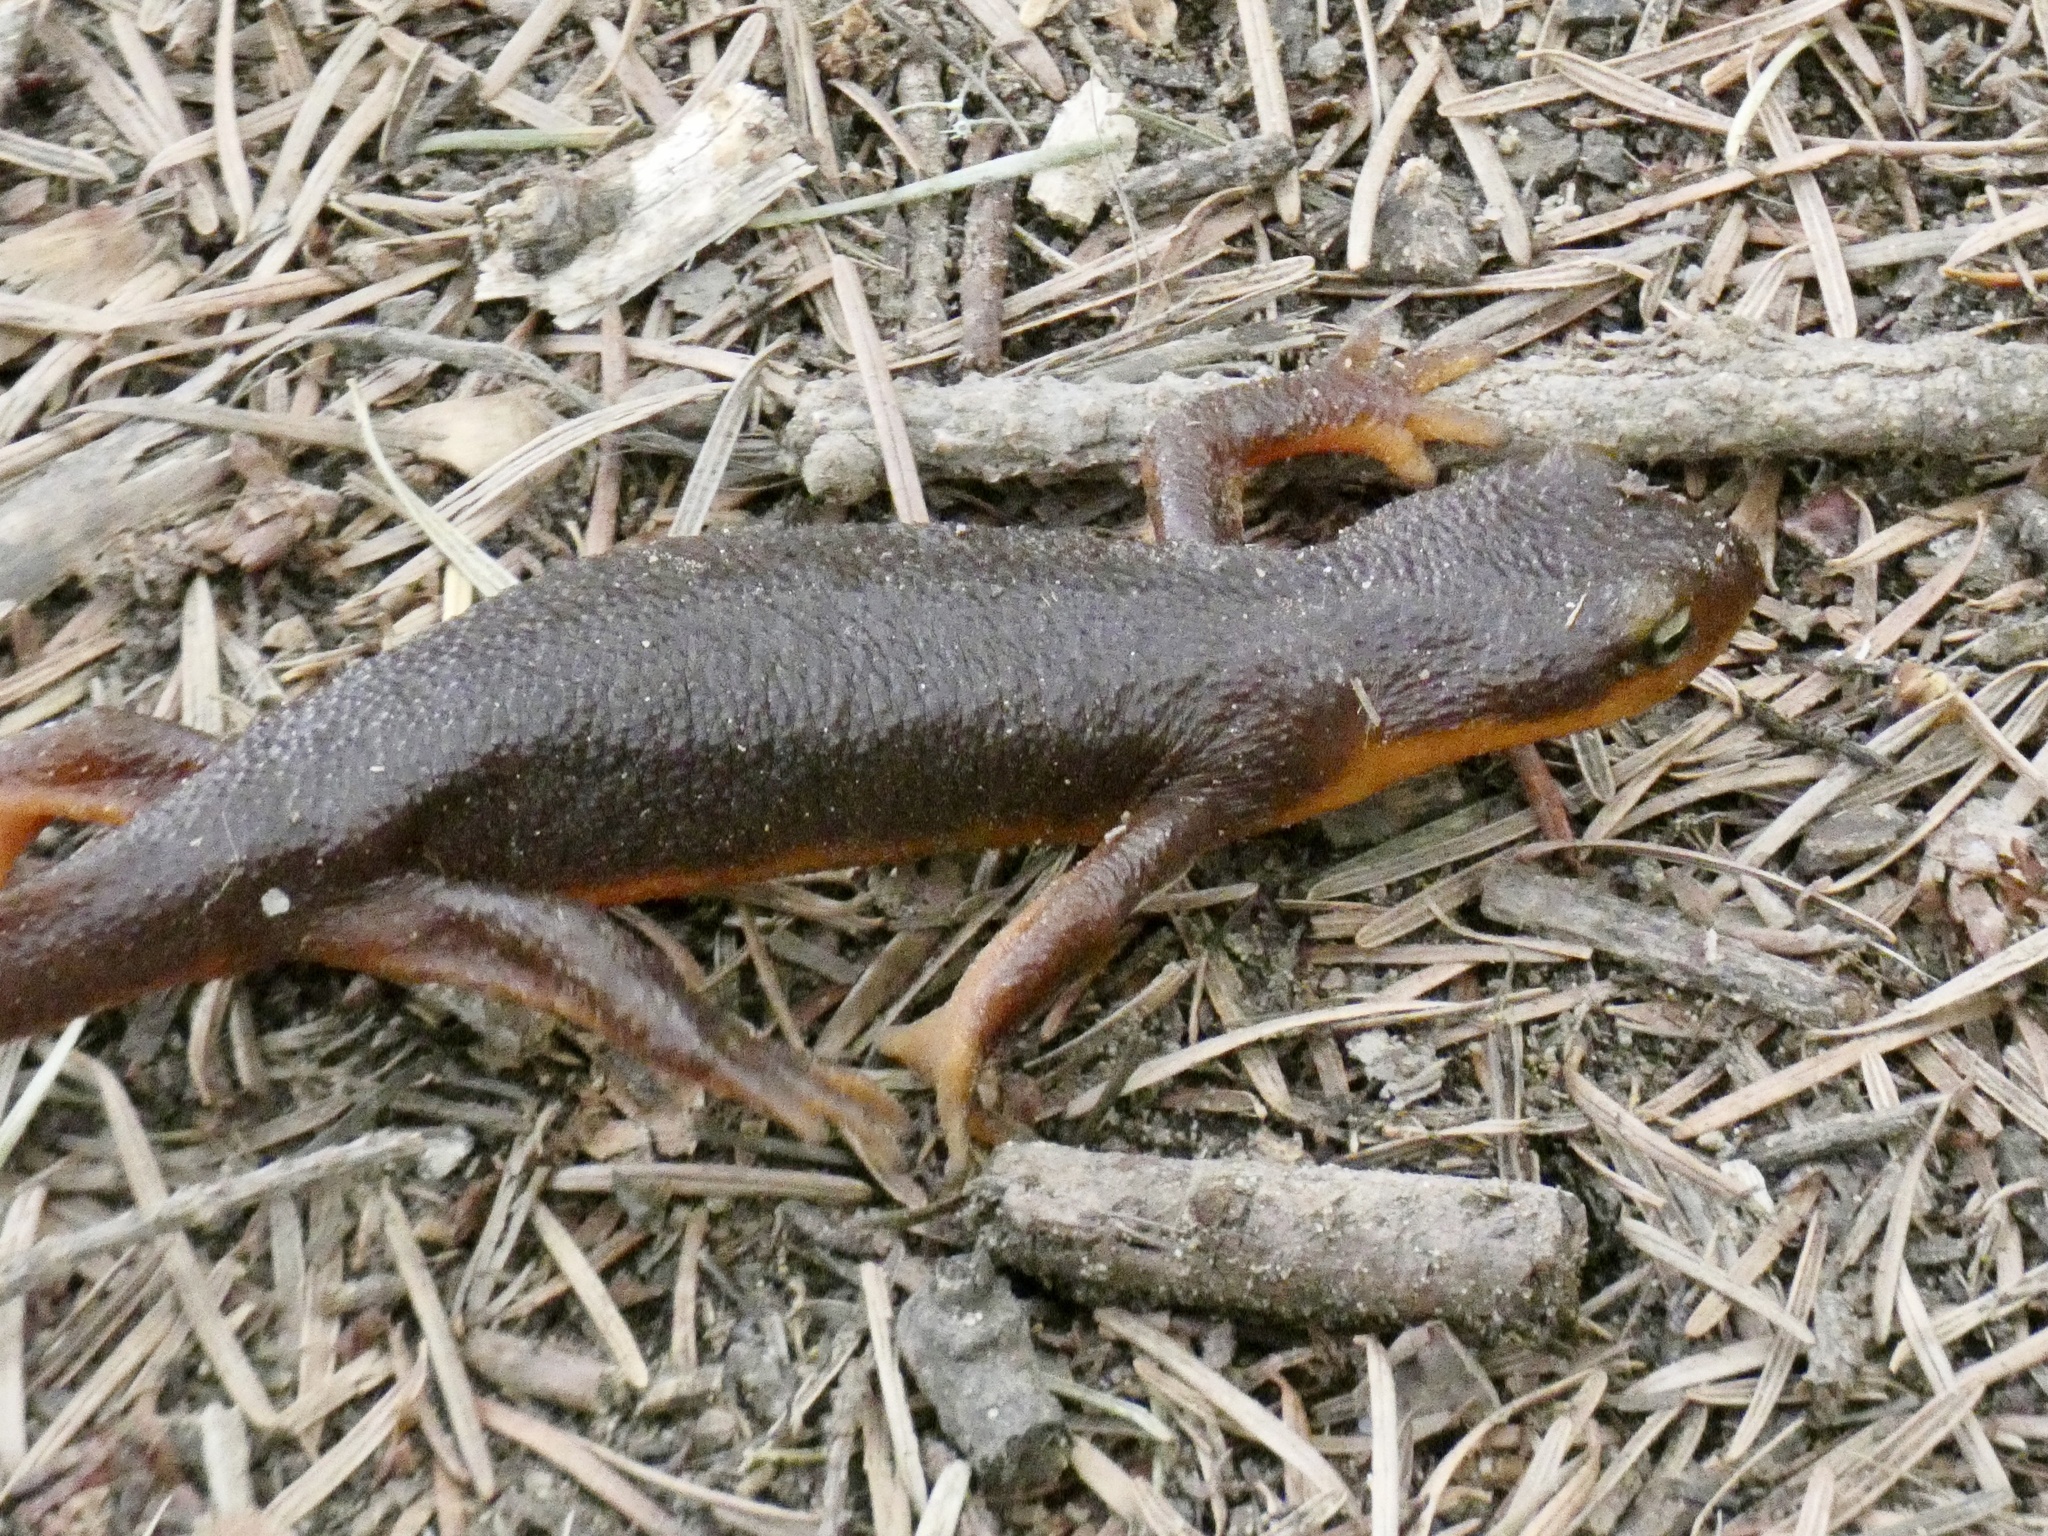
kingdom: Animalia
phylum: Chordata
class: Amphibia
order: Caudata
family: Salamandridae
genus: Taricha
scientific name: Taricha torosa
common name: California newt
